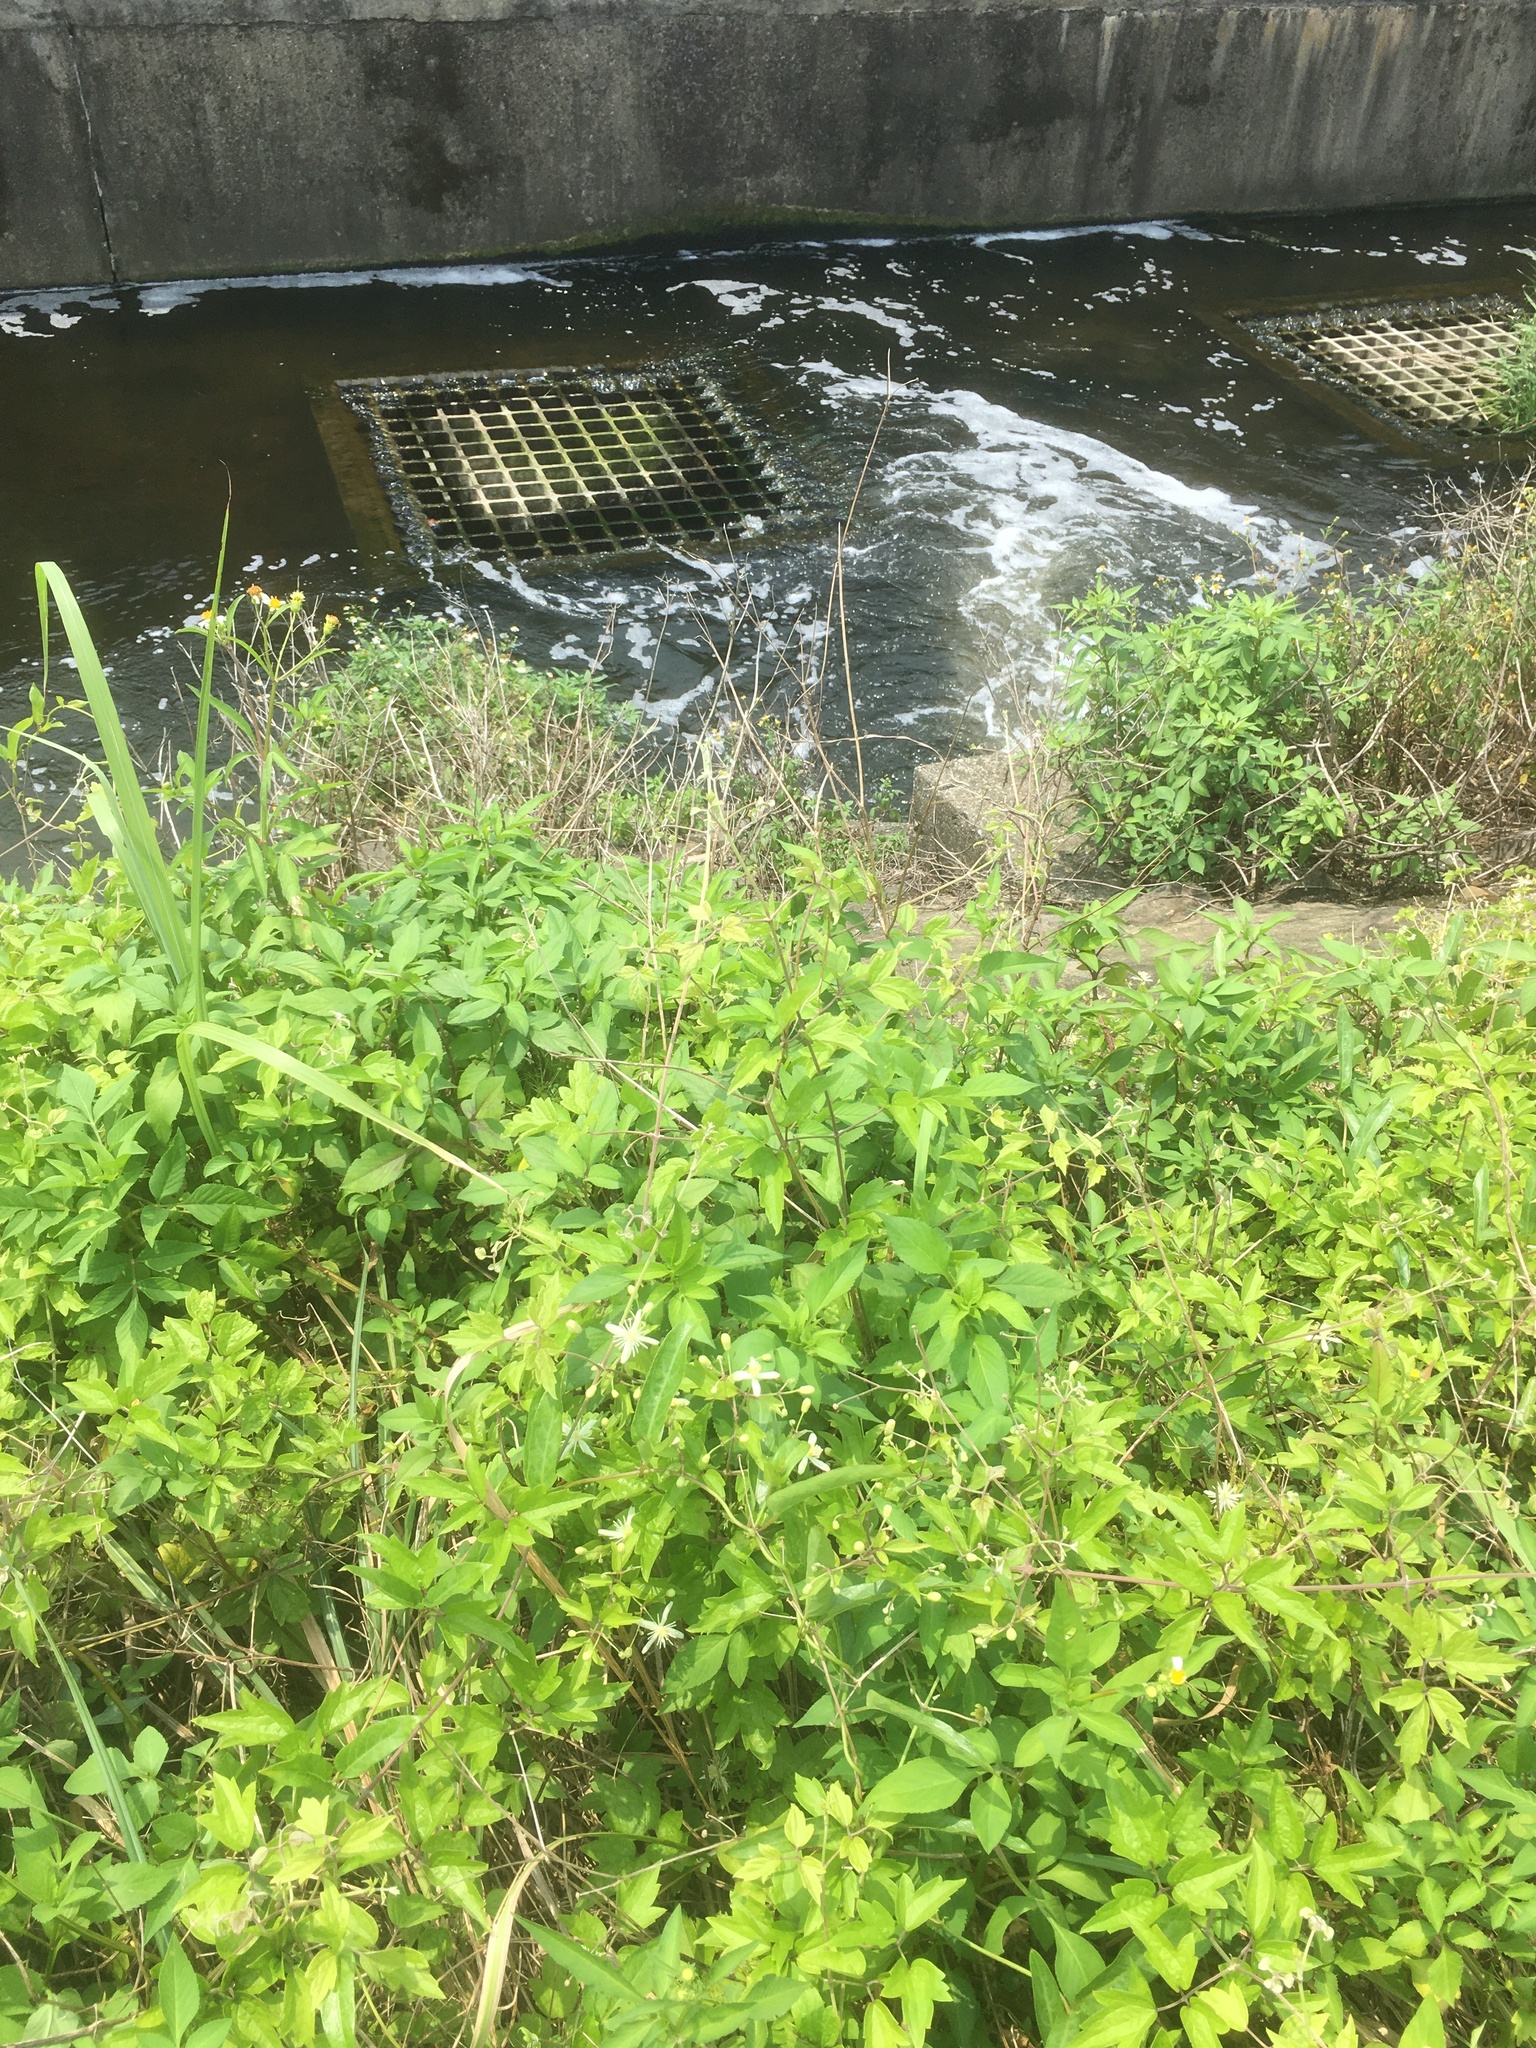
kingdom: Plantae
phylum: Tracheophyta
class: Magnoliopsida
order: Ranunculales
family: Ranunculaceae
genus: Clematis
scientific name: Clematis grata
